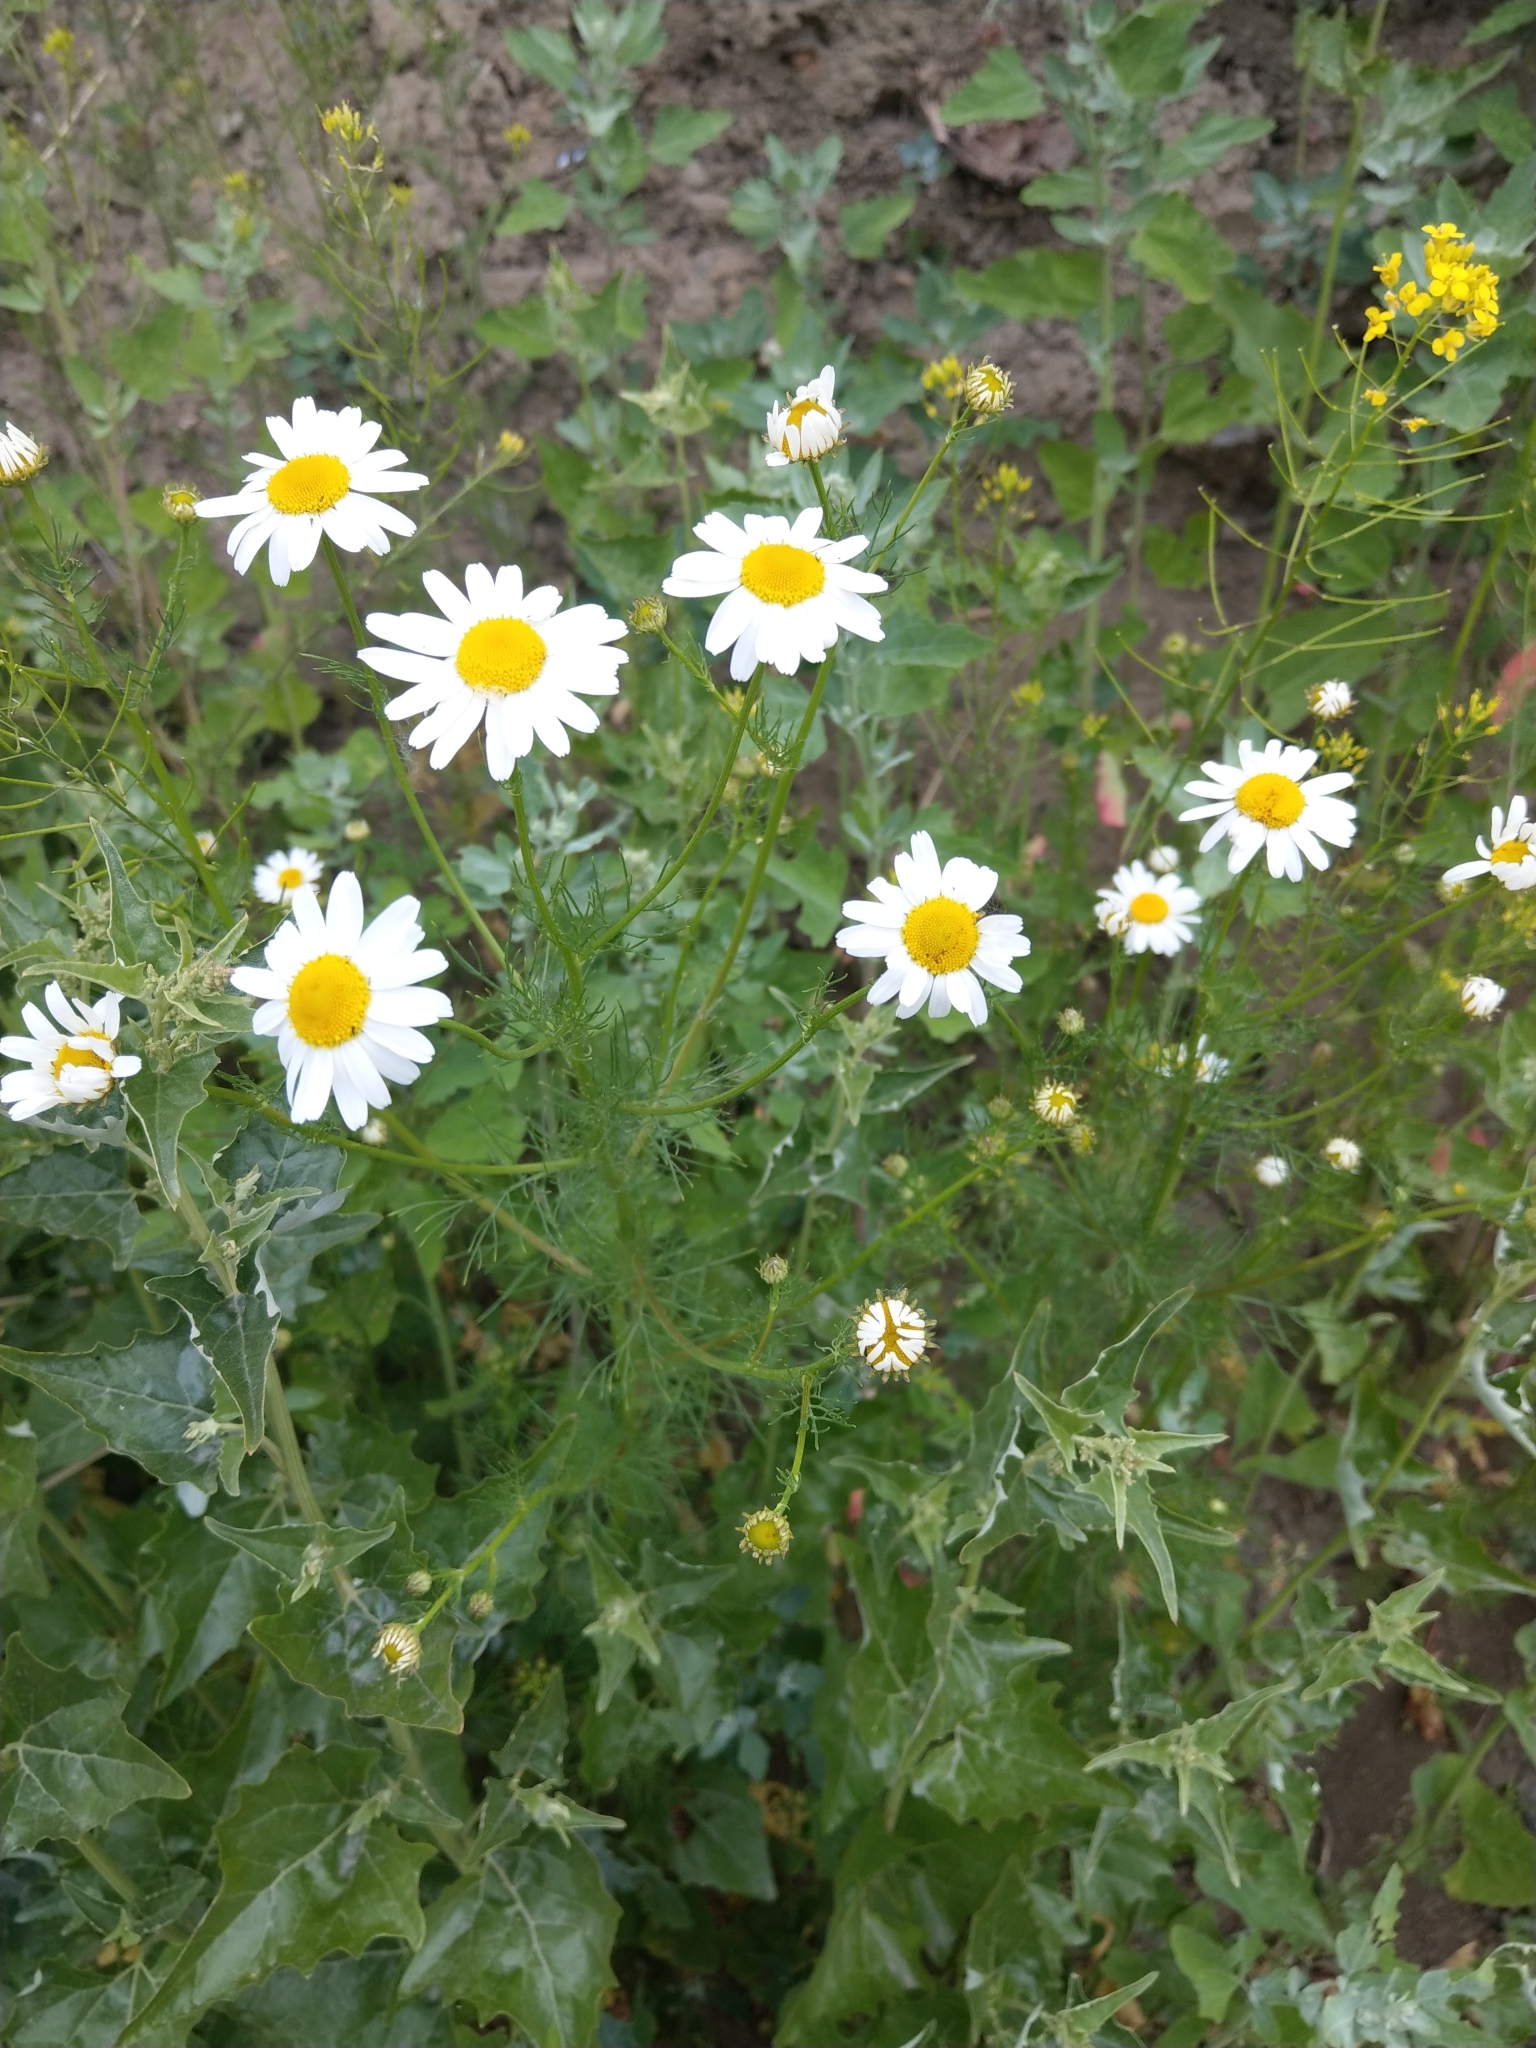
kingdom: Plantae
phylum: Tracheophyta
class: Magnoliopsida
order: Asterales
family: Asteraceae
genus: Tripleurospermum
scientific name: Tripleurospermum inodorum
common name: Scentless mayweed
